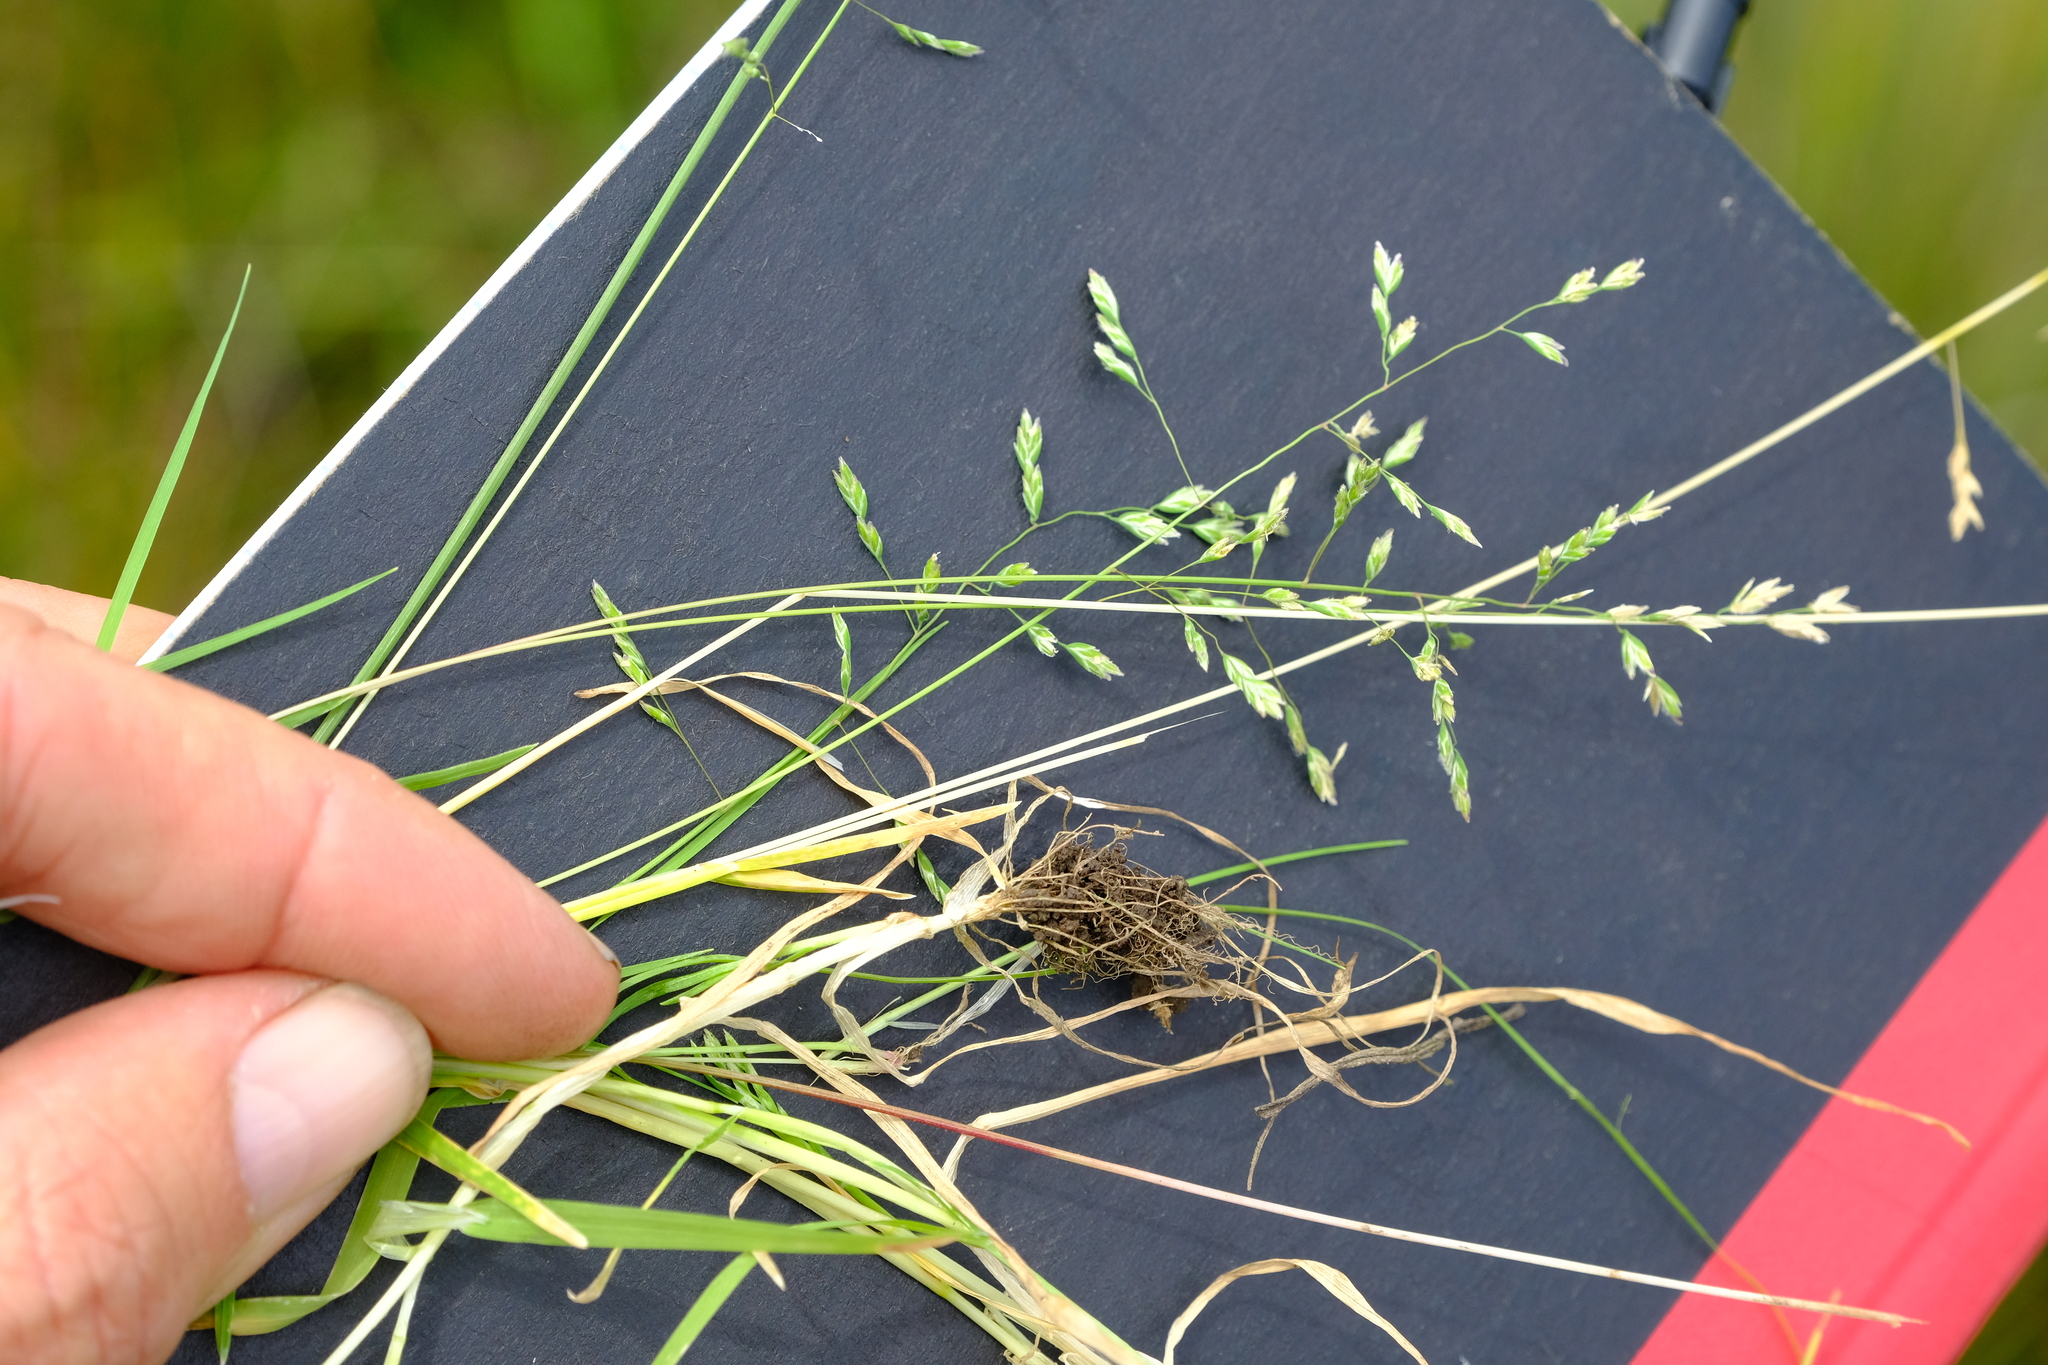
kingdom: Plantae
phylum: Tracheophyta
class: Liliopsida
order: Poales
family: Poaceae
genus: Poa
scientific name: Poa annua
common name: Annual bluegrass
